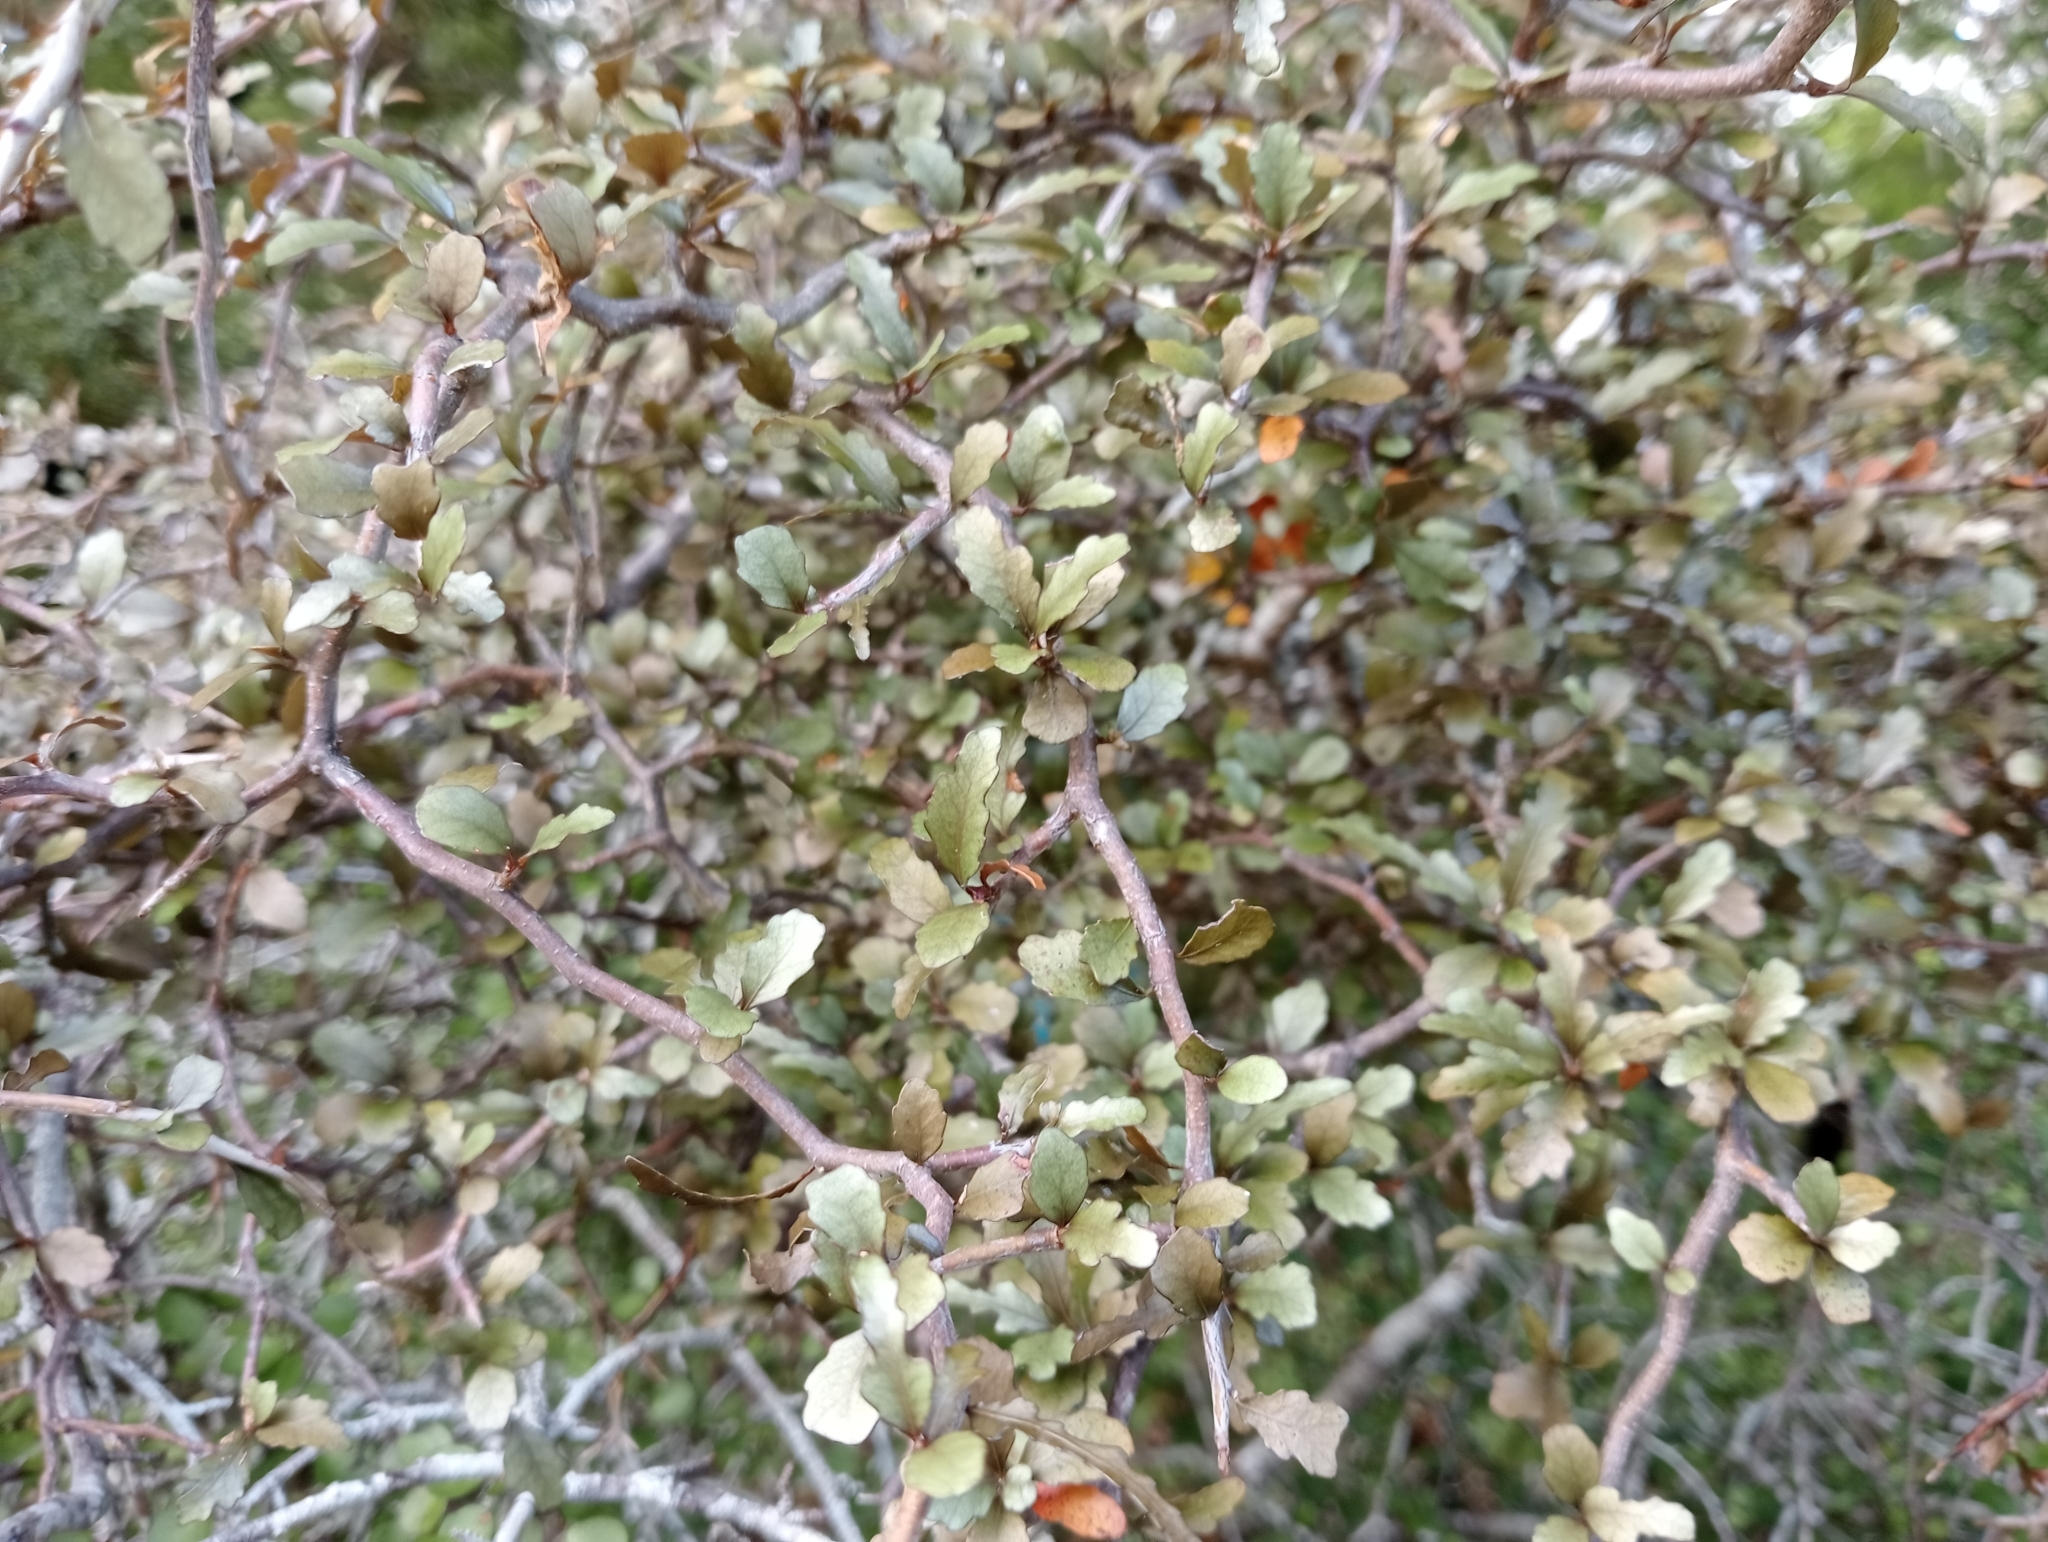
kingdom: Plantae
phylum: Tracheophyta
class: Magnoliopsida
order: Oxalidales
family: Elaeocarpaceae
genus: Elaeocarpus
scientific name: Elaeocarpus hookerianus
